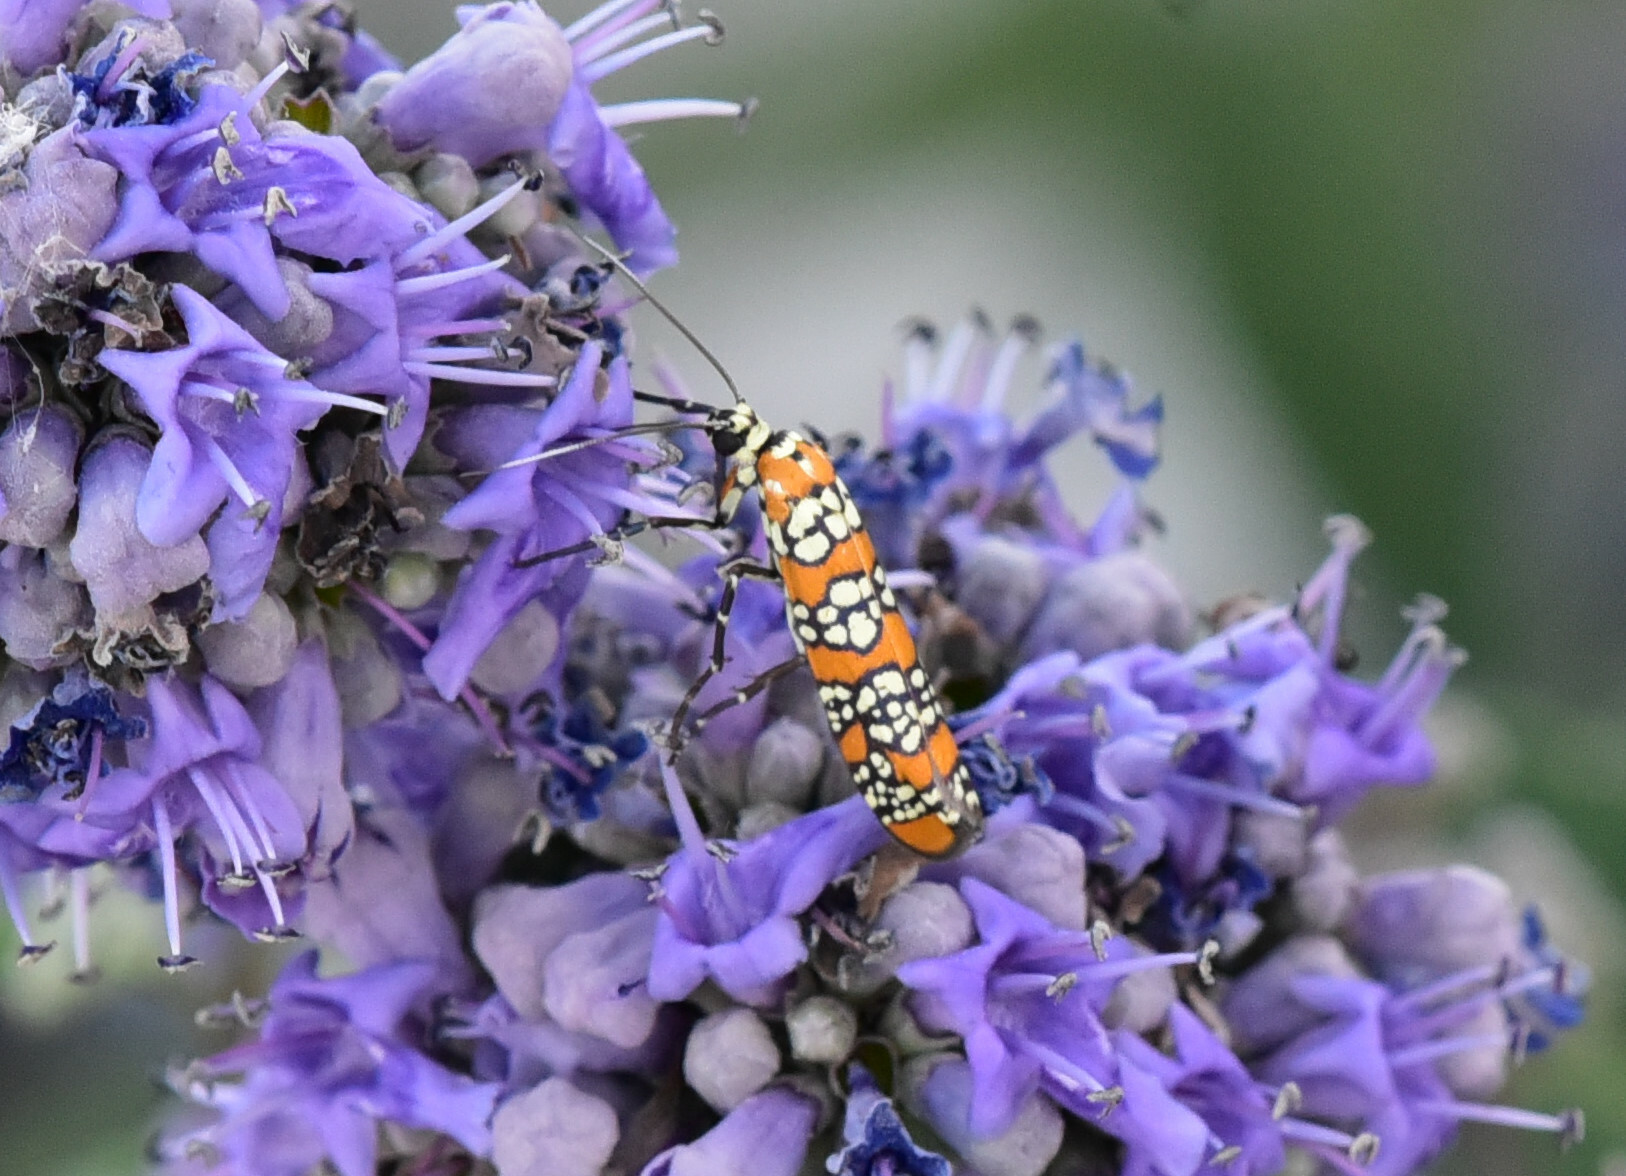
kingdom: Animalia
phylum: Arthropoda
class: Insecta
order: Lepidoptera
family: Attevidae
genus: Atteva
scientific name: Atteva punctella
